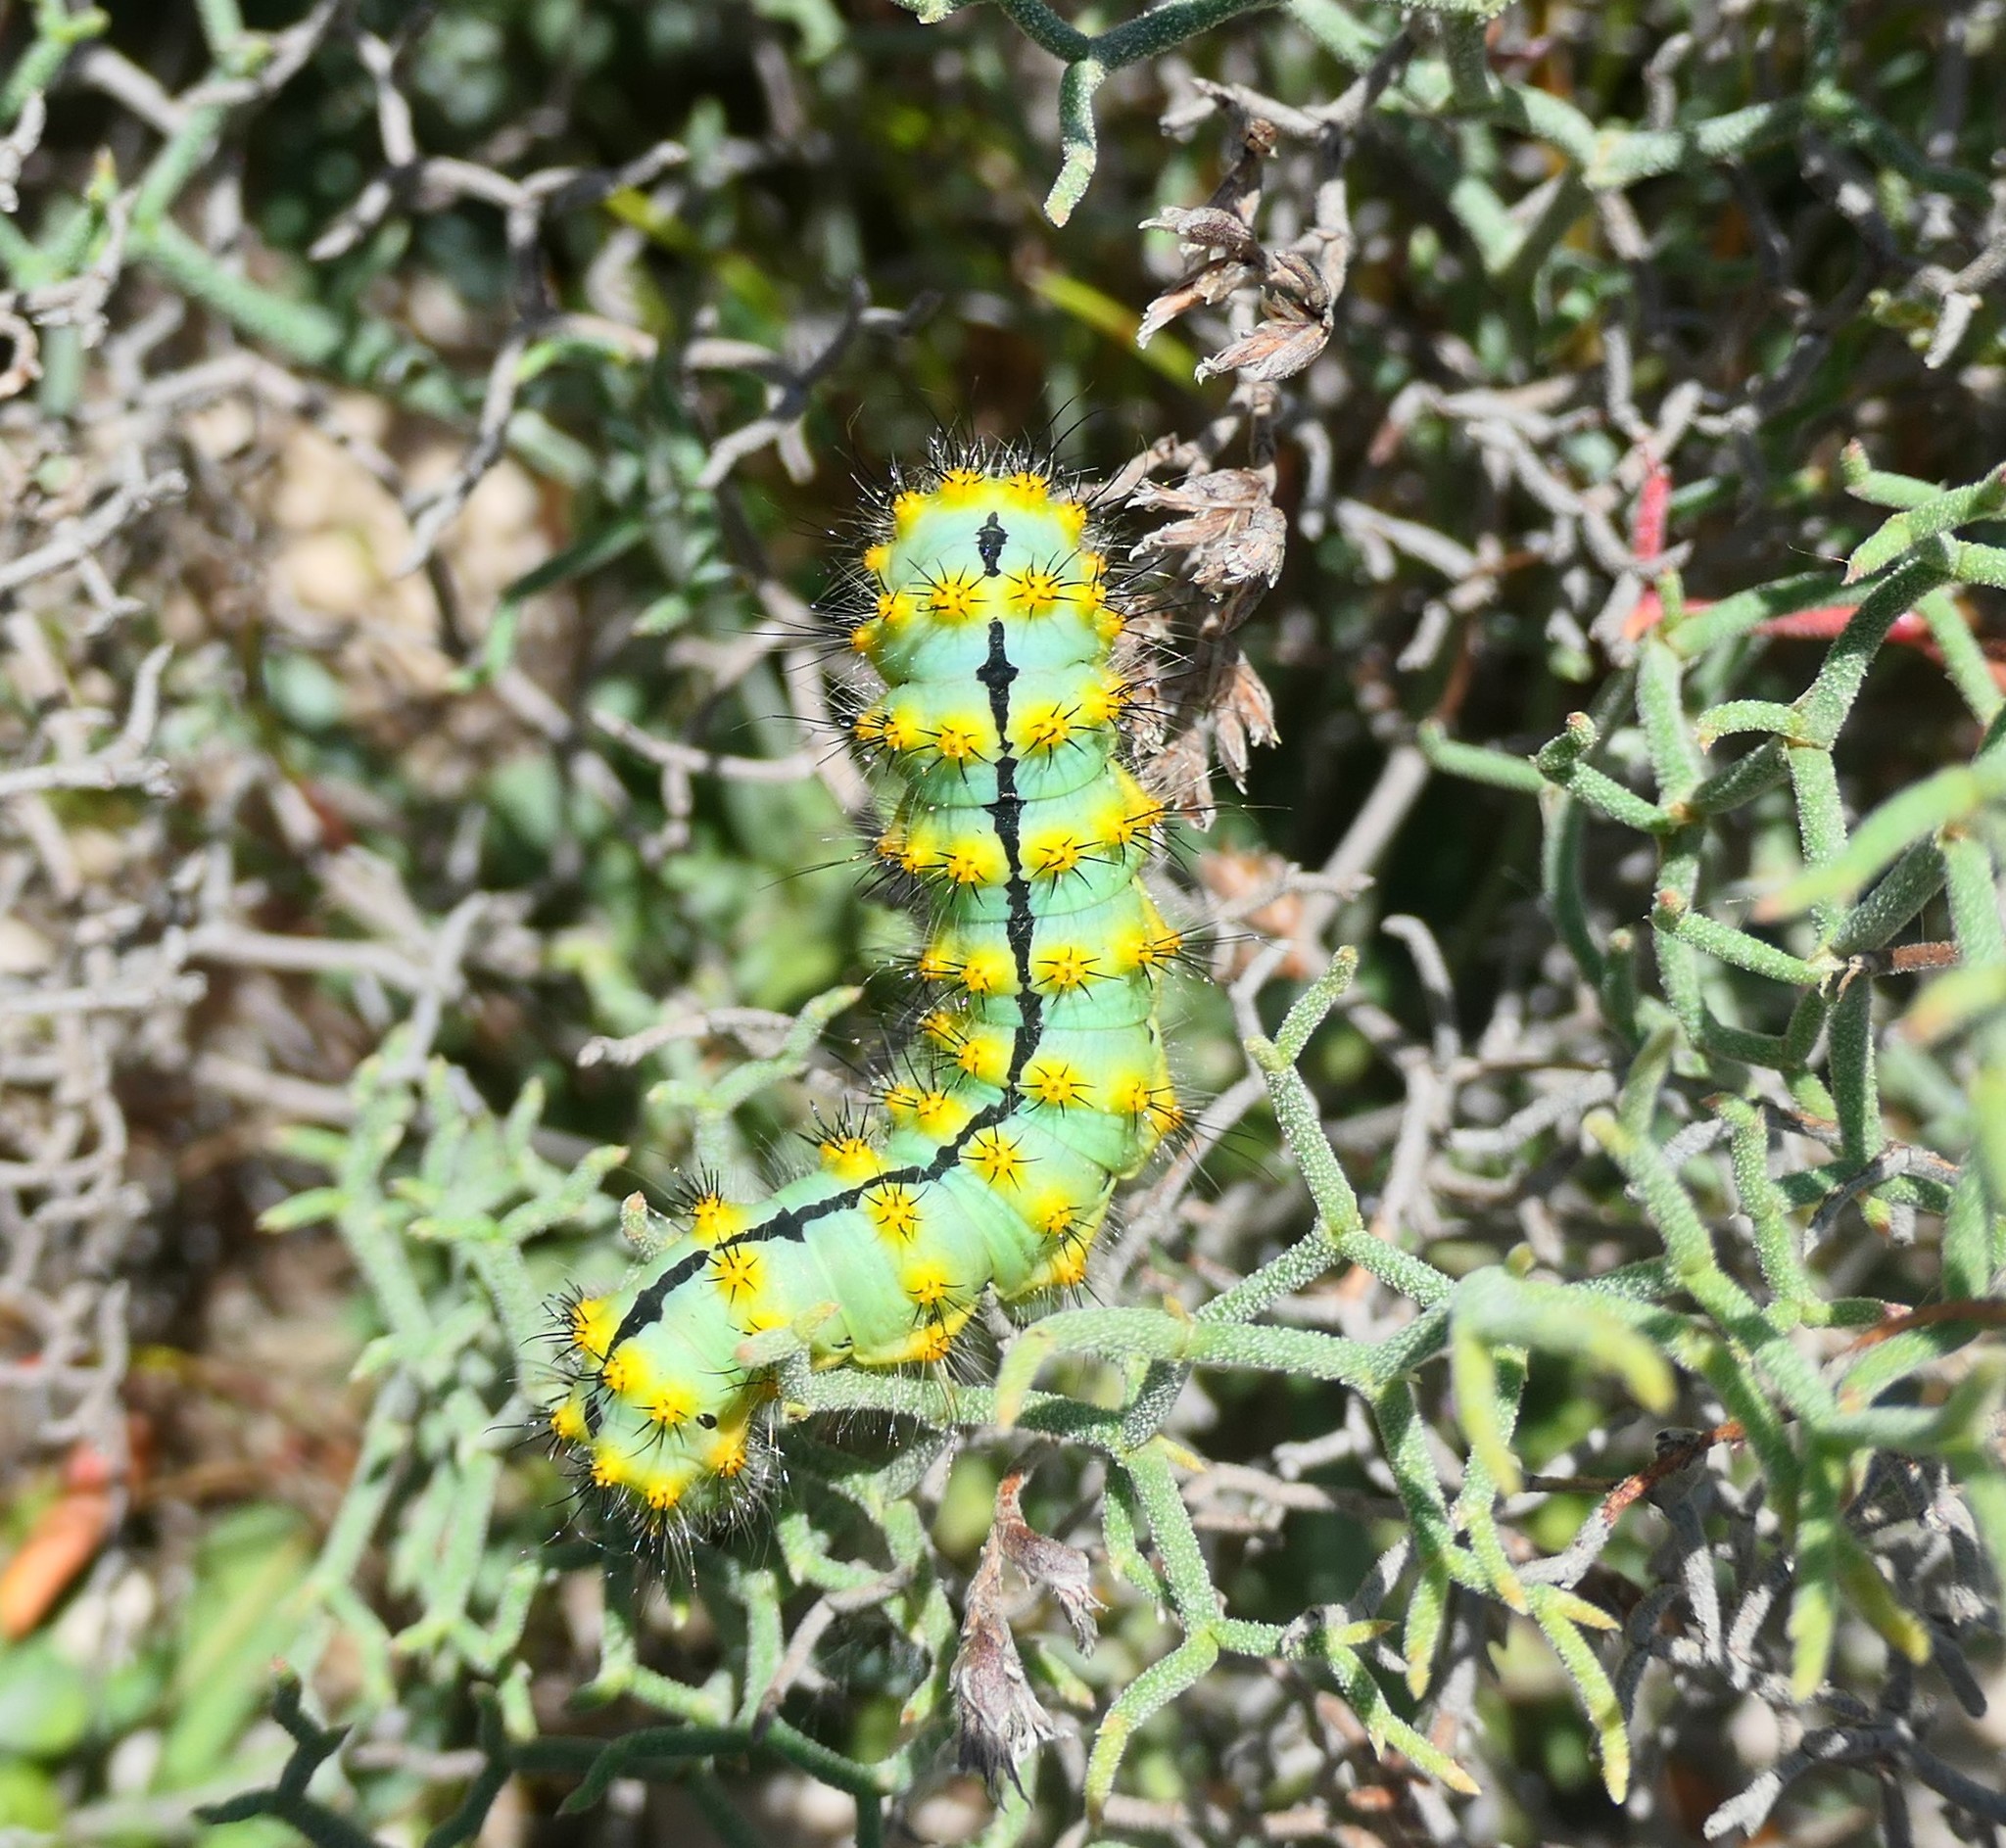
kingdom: Animalia
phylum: Arthropoda
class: Insecta
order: Lepidoptera
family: Saturniidae
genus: Saturnia
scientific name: Saturnia pavoniella
